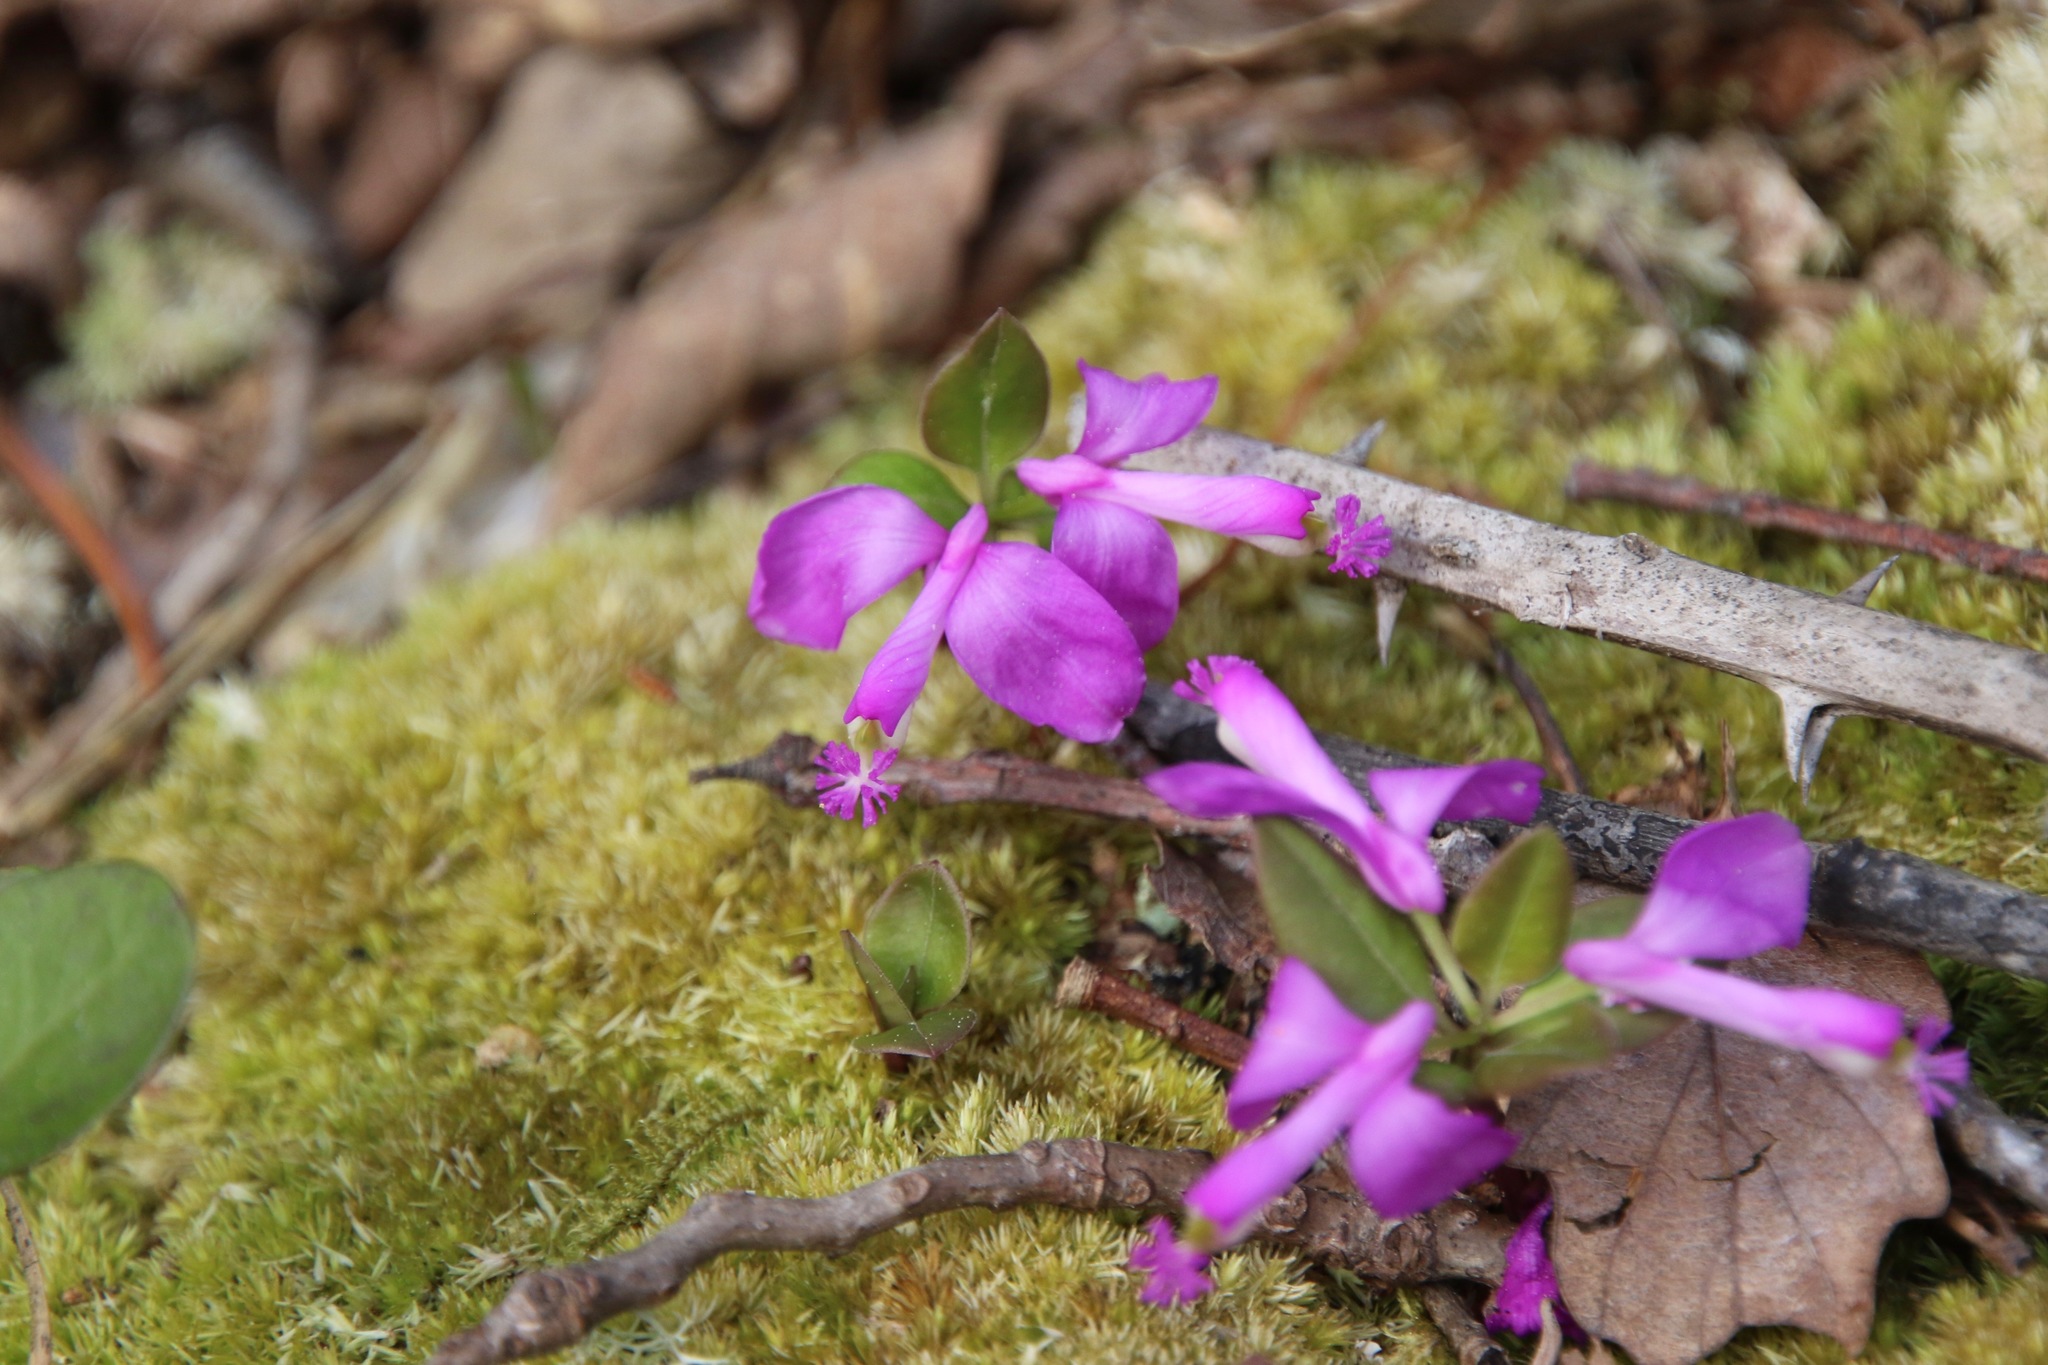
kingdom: Plantae
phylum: Tracheophyta
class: Magnoliopsida
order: Fabales
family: Polygalaceae
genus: Polygaloides
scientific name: Polygaloides paucifolia
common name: Bird-on-the-wing
